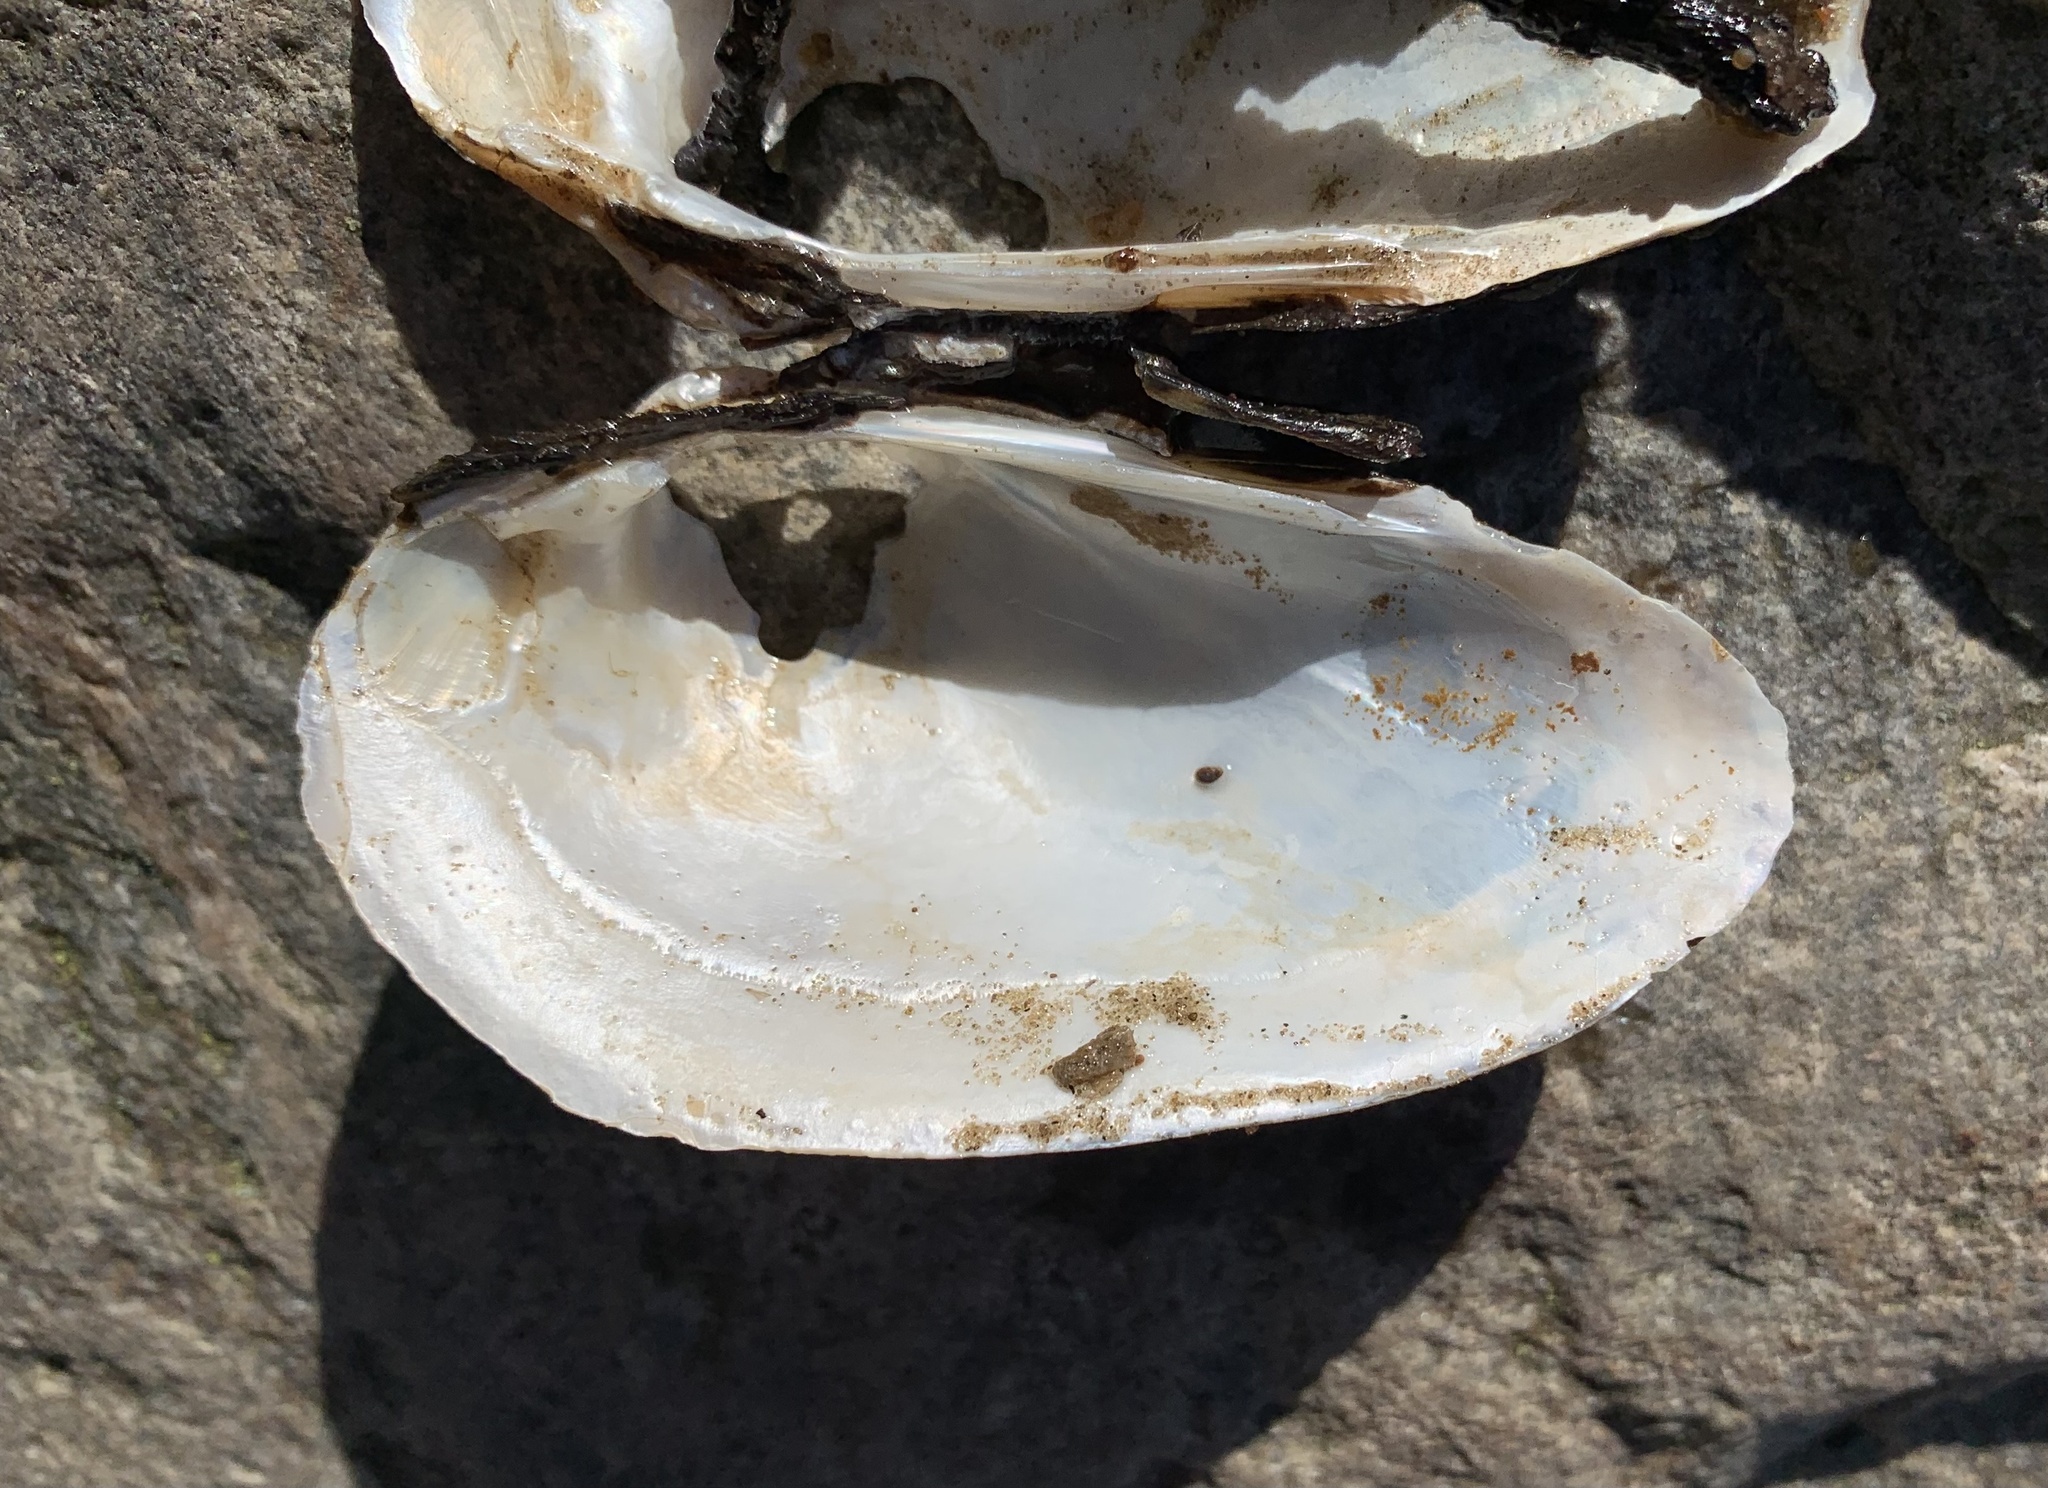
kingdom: Animalia
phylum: Mollusca
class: Bivalvia
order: Unionida
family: Unionidae
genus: Unio
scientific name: Unio tumidus
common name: Swollen river mussel
